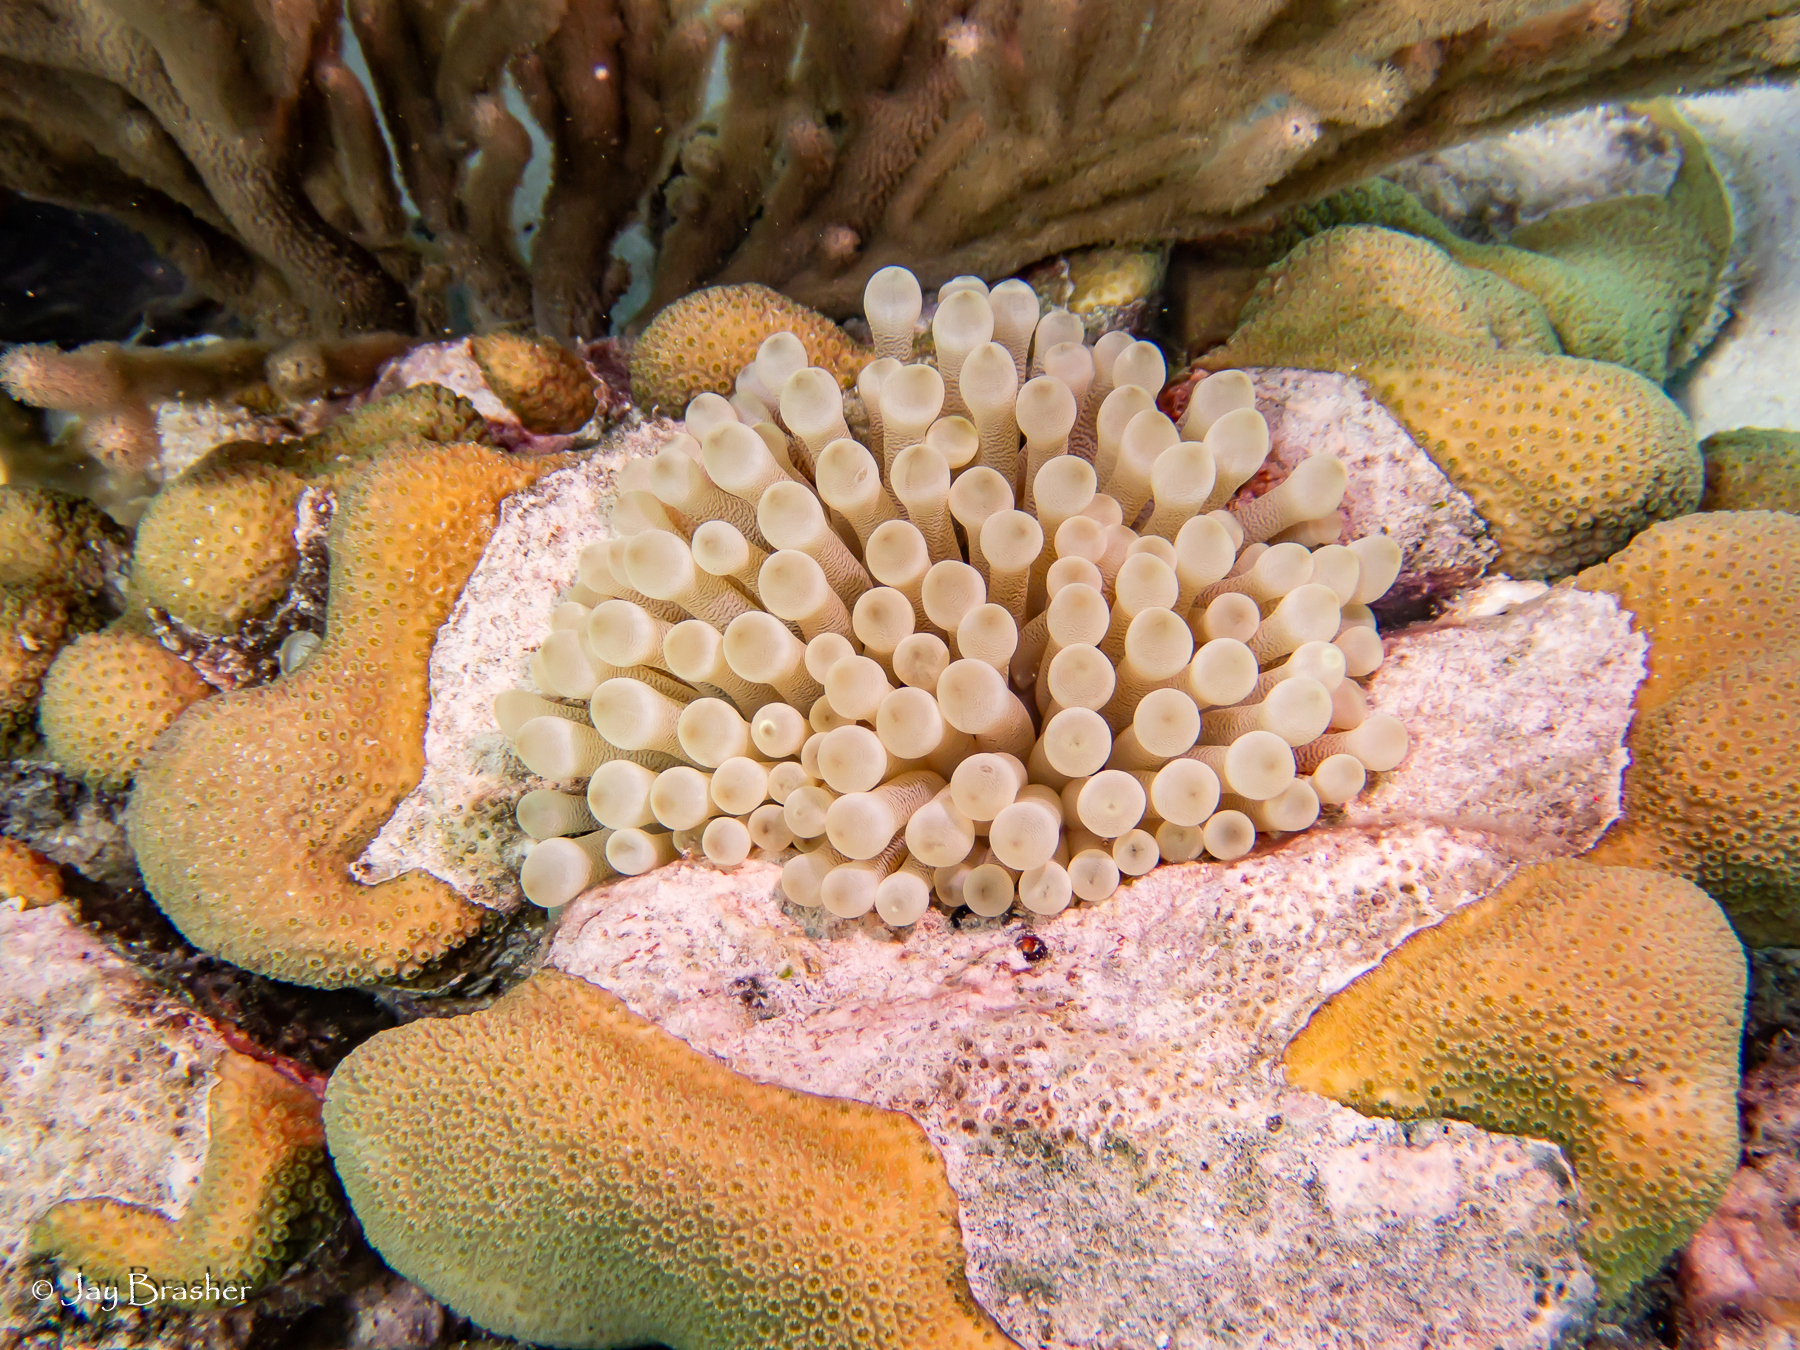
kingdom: Animalia
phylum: Cnidaria
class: Anthozoa
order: Actiniaria
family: Actiniidae
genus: Condylactis
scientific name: Condylactis gigantea
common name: Giant caribbean anemone
